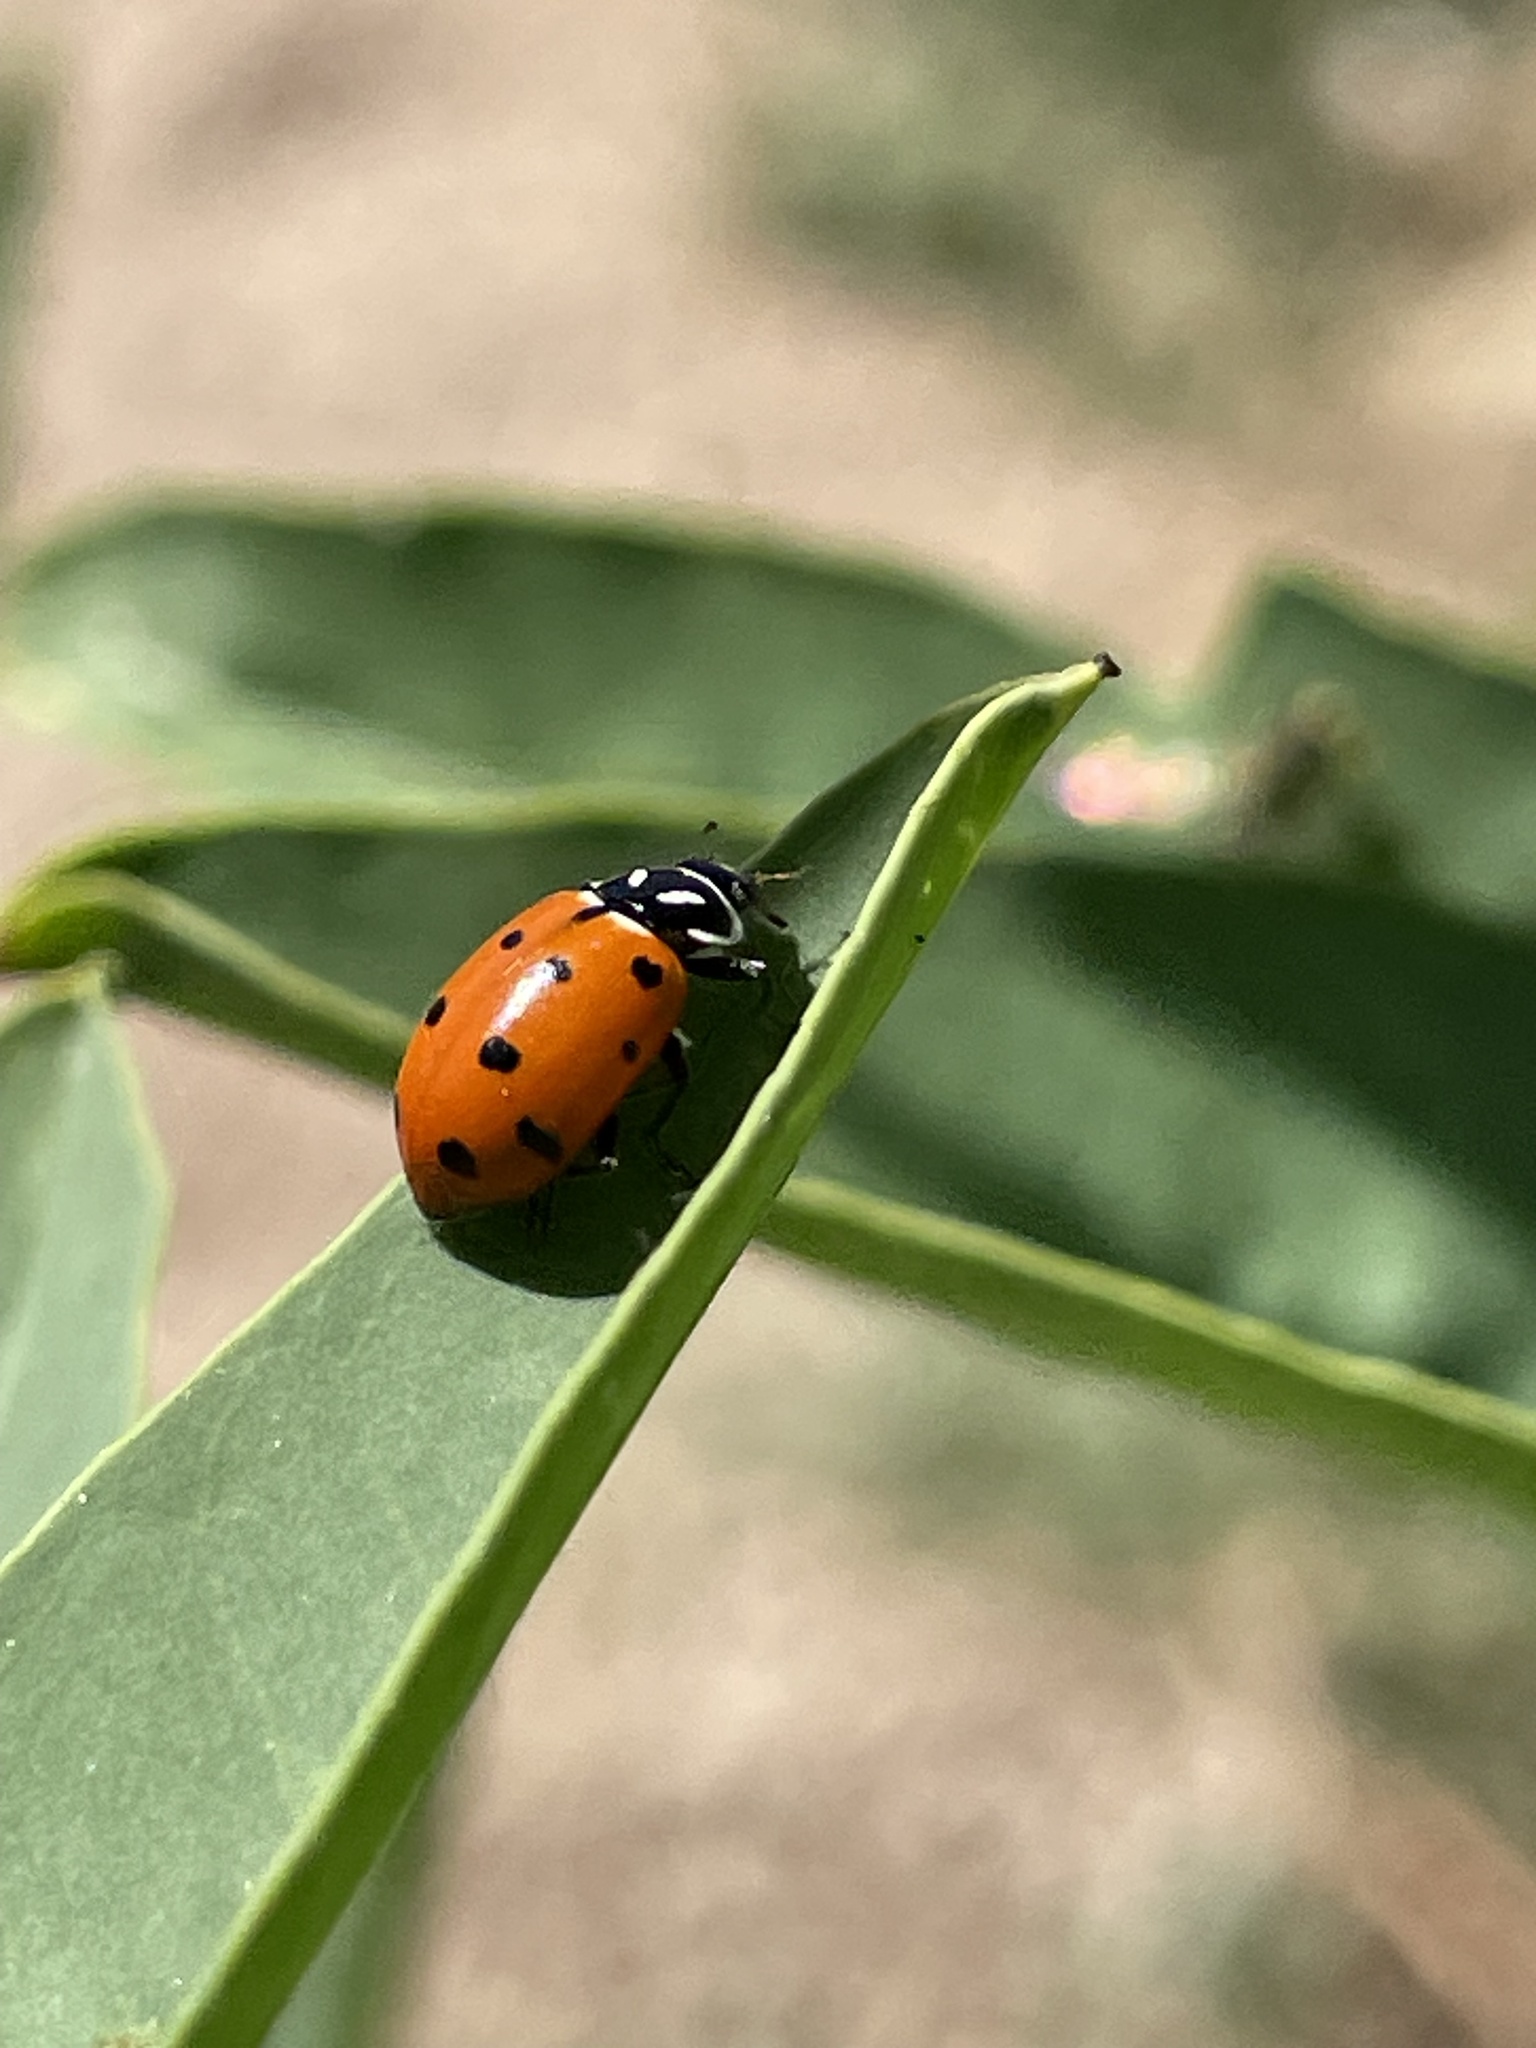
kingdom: Animalia
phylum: Arthropoda
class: Insecta
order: Coleoptera
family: Coccinellidae
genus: Hippodamia
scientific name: Hippodamia convergens
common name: Convergent lady beetle
